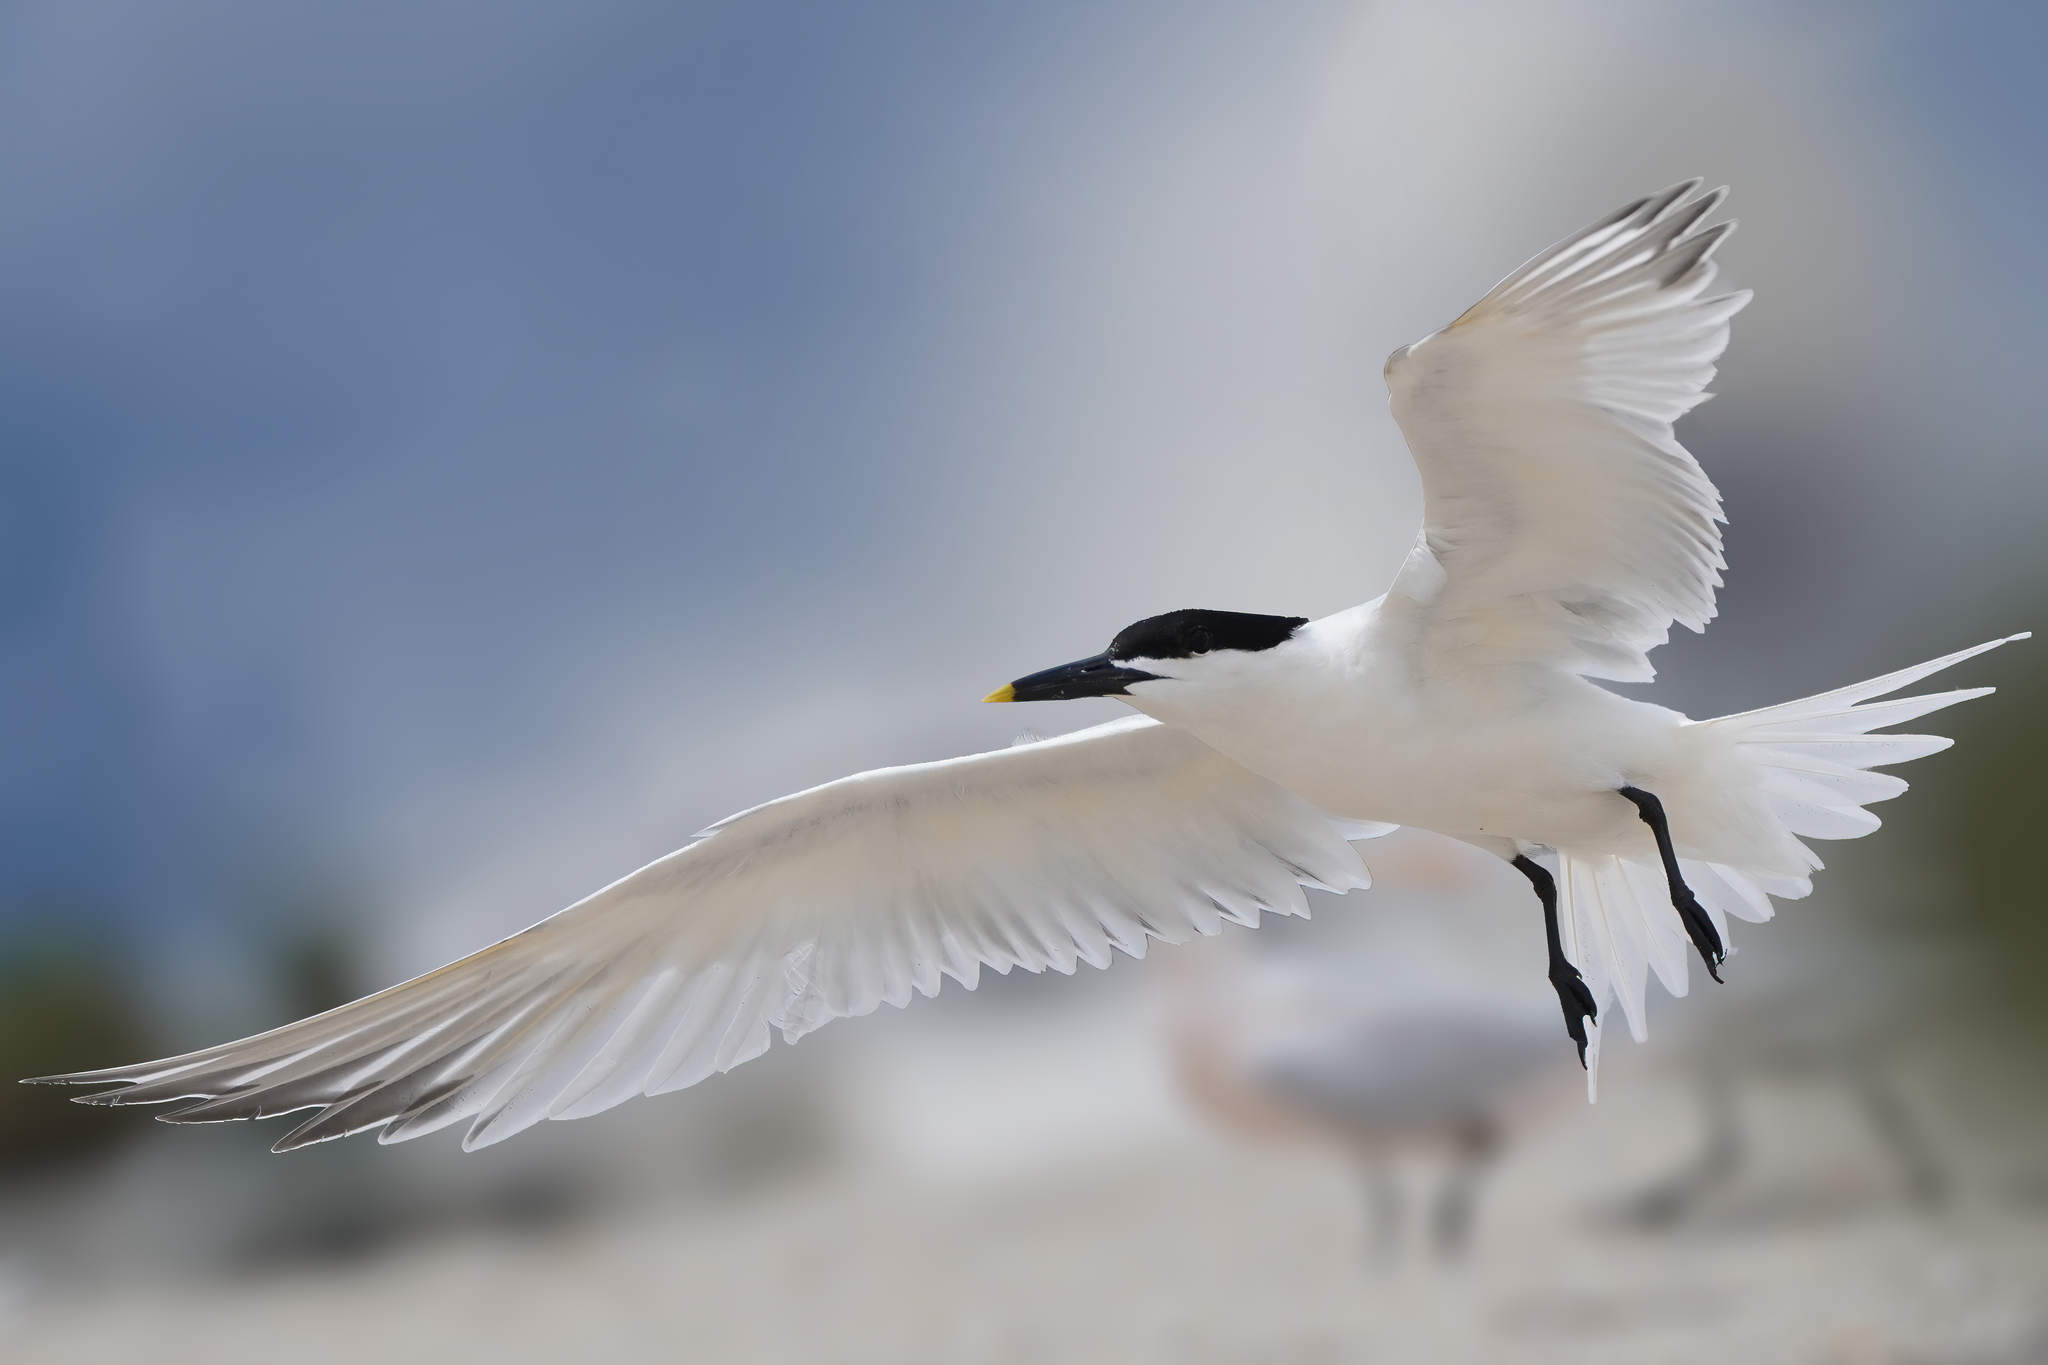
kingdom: Animalia
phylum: Chordata
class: Aves
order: Charadriiformes
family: Laridae
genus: Thalasseus
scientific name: Thalasseus sandvicensis
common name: Sandwich tern
